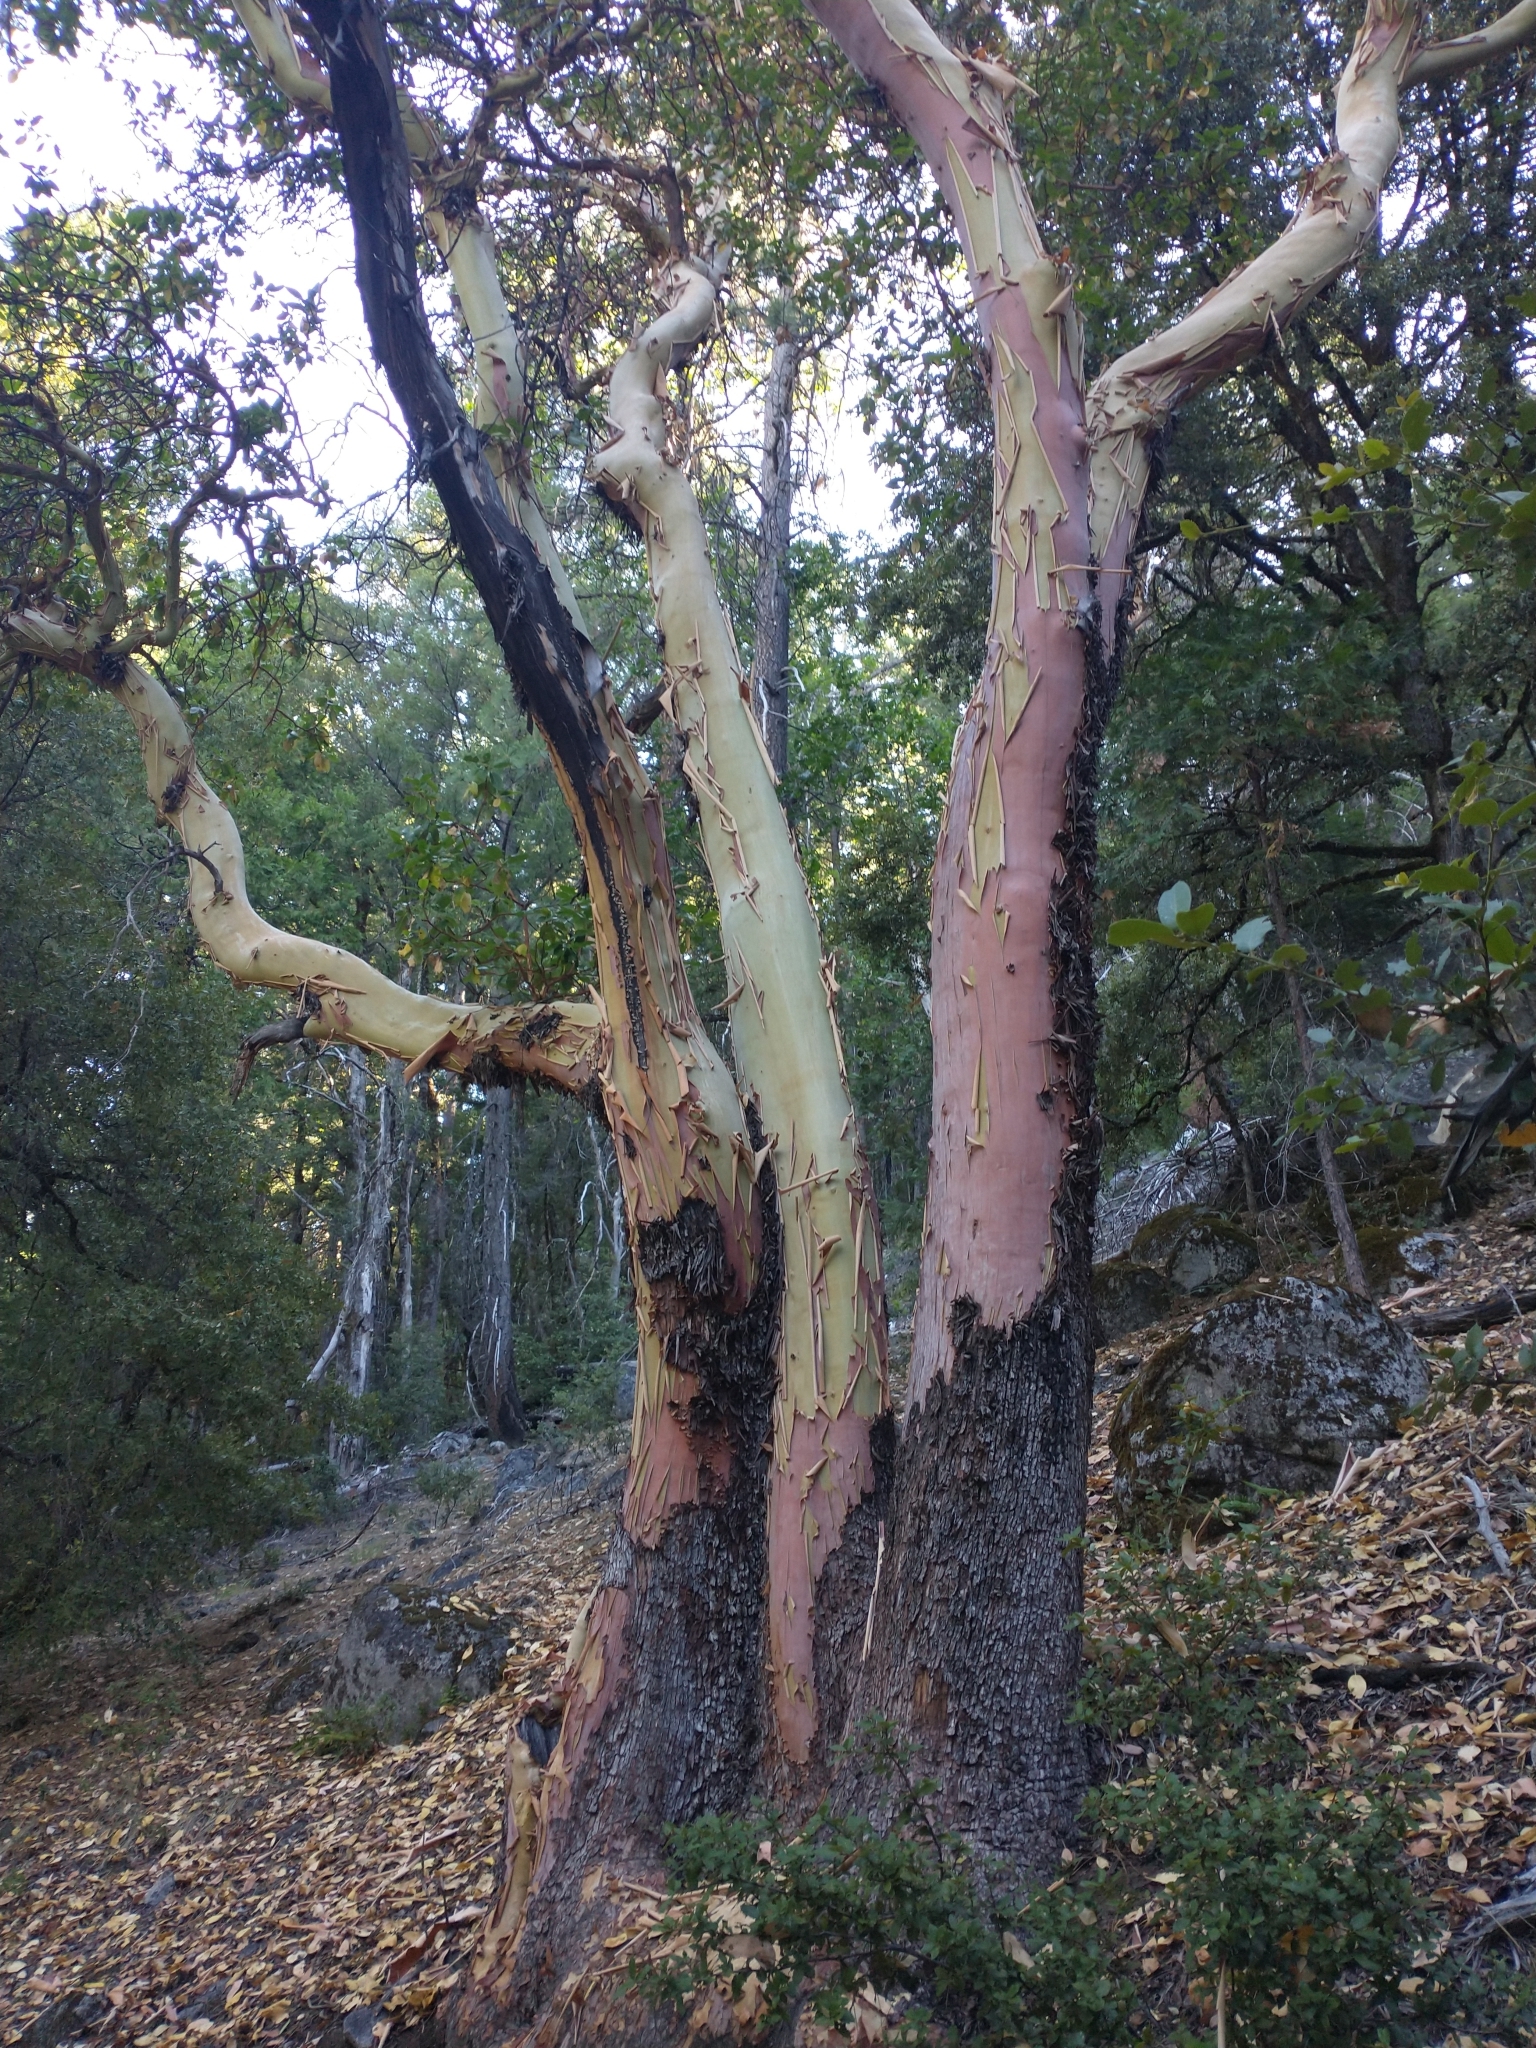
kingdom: Plantae
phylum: Tracheophyta
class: Magnoliopsida
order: Ericales
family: Ericaceae
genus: Arbutus
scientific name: Arbutus menziesii
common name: Pacific madrone
